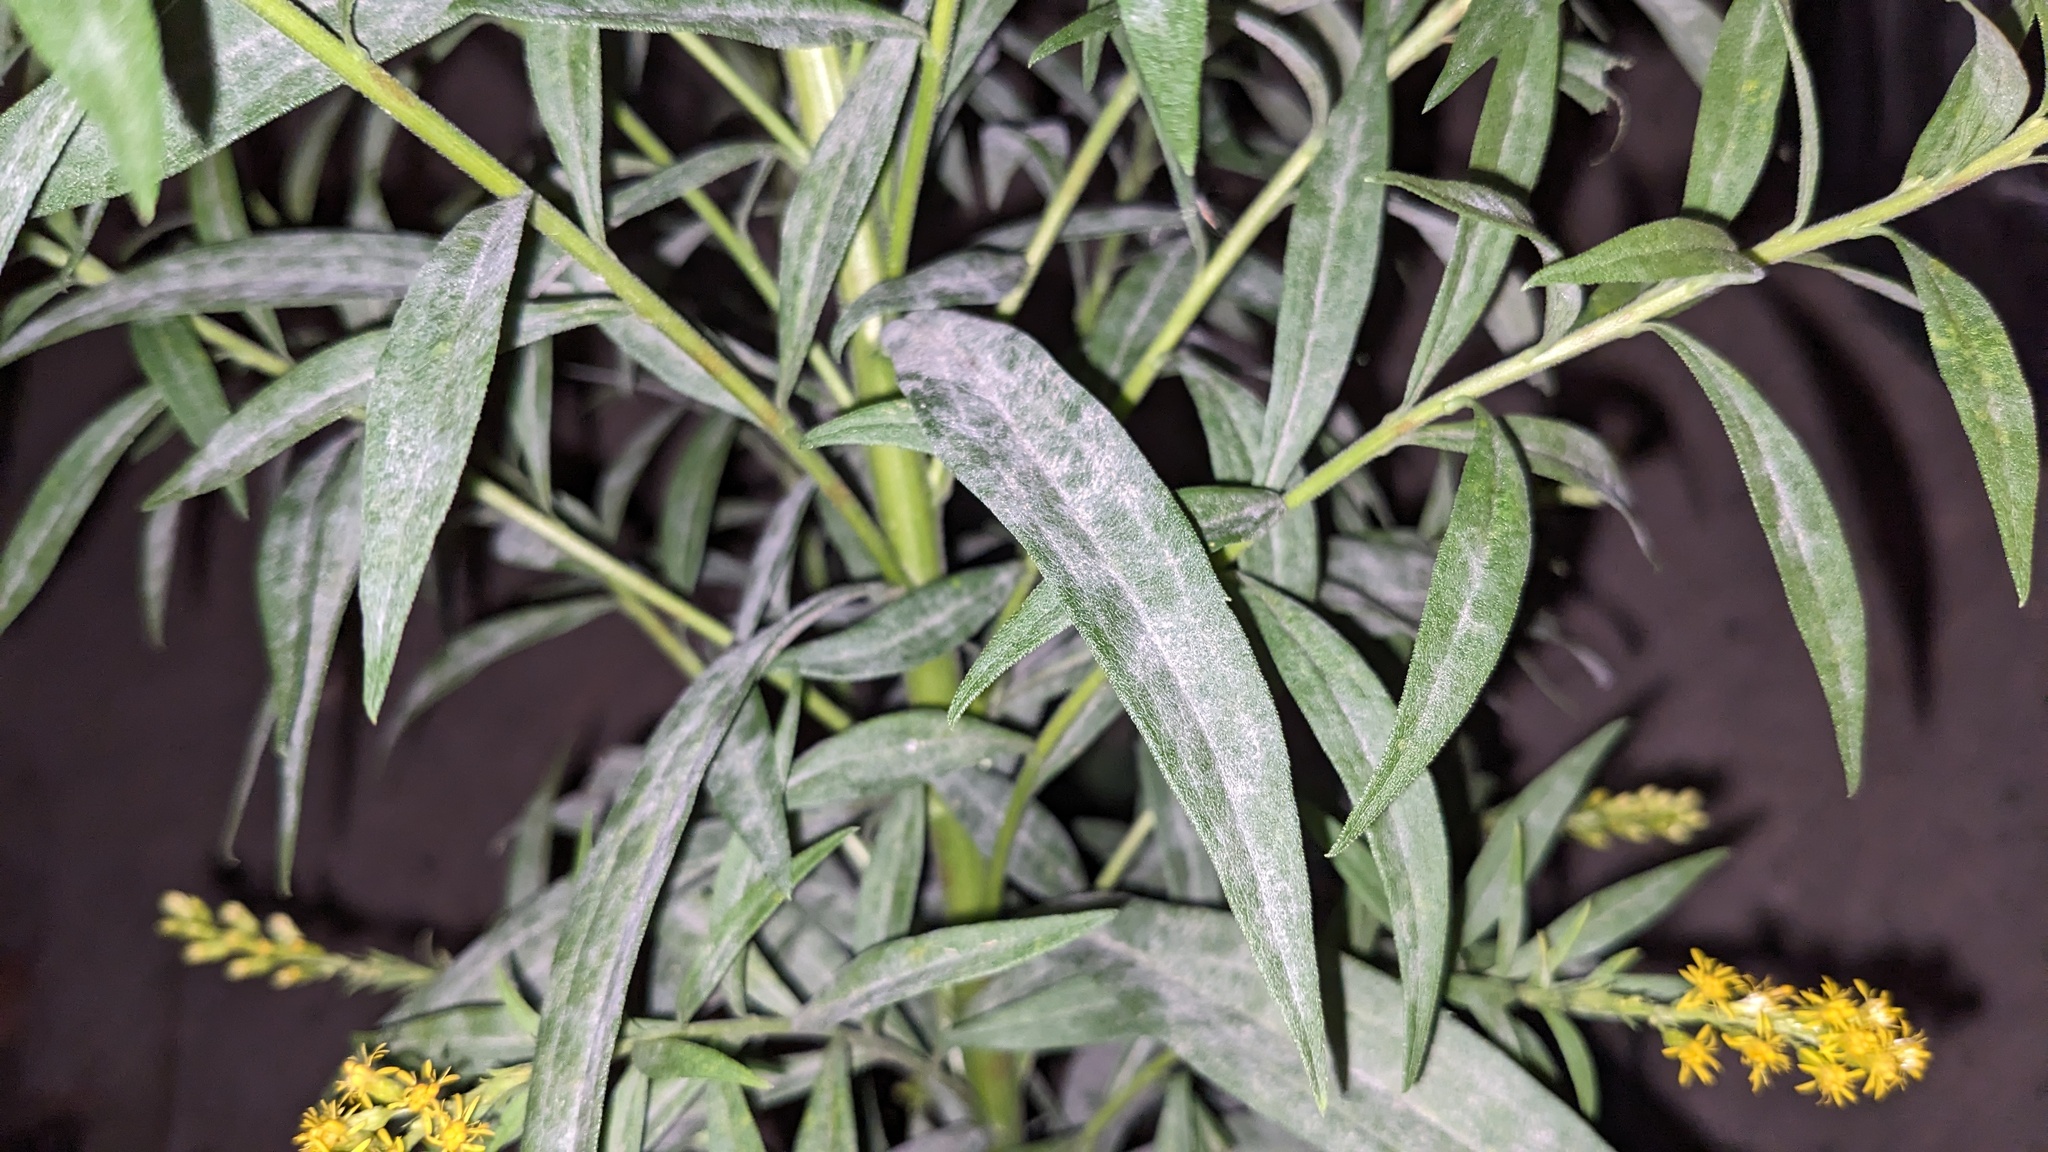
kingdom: Fungi
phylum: Ascomycota
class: Leotiomycetes
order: Helotiales
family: Erysiphaceae
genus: Golovinomyces
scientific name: Golovinomyces asterum
